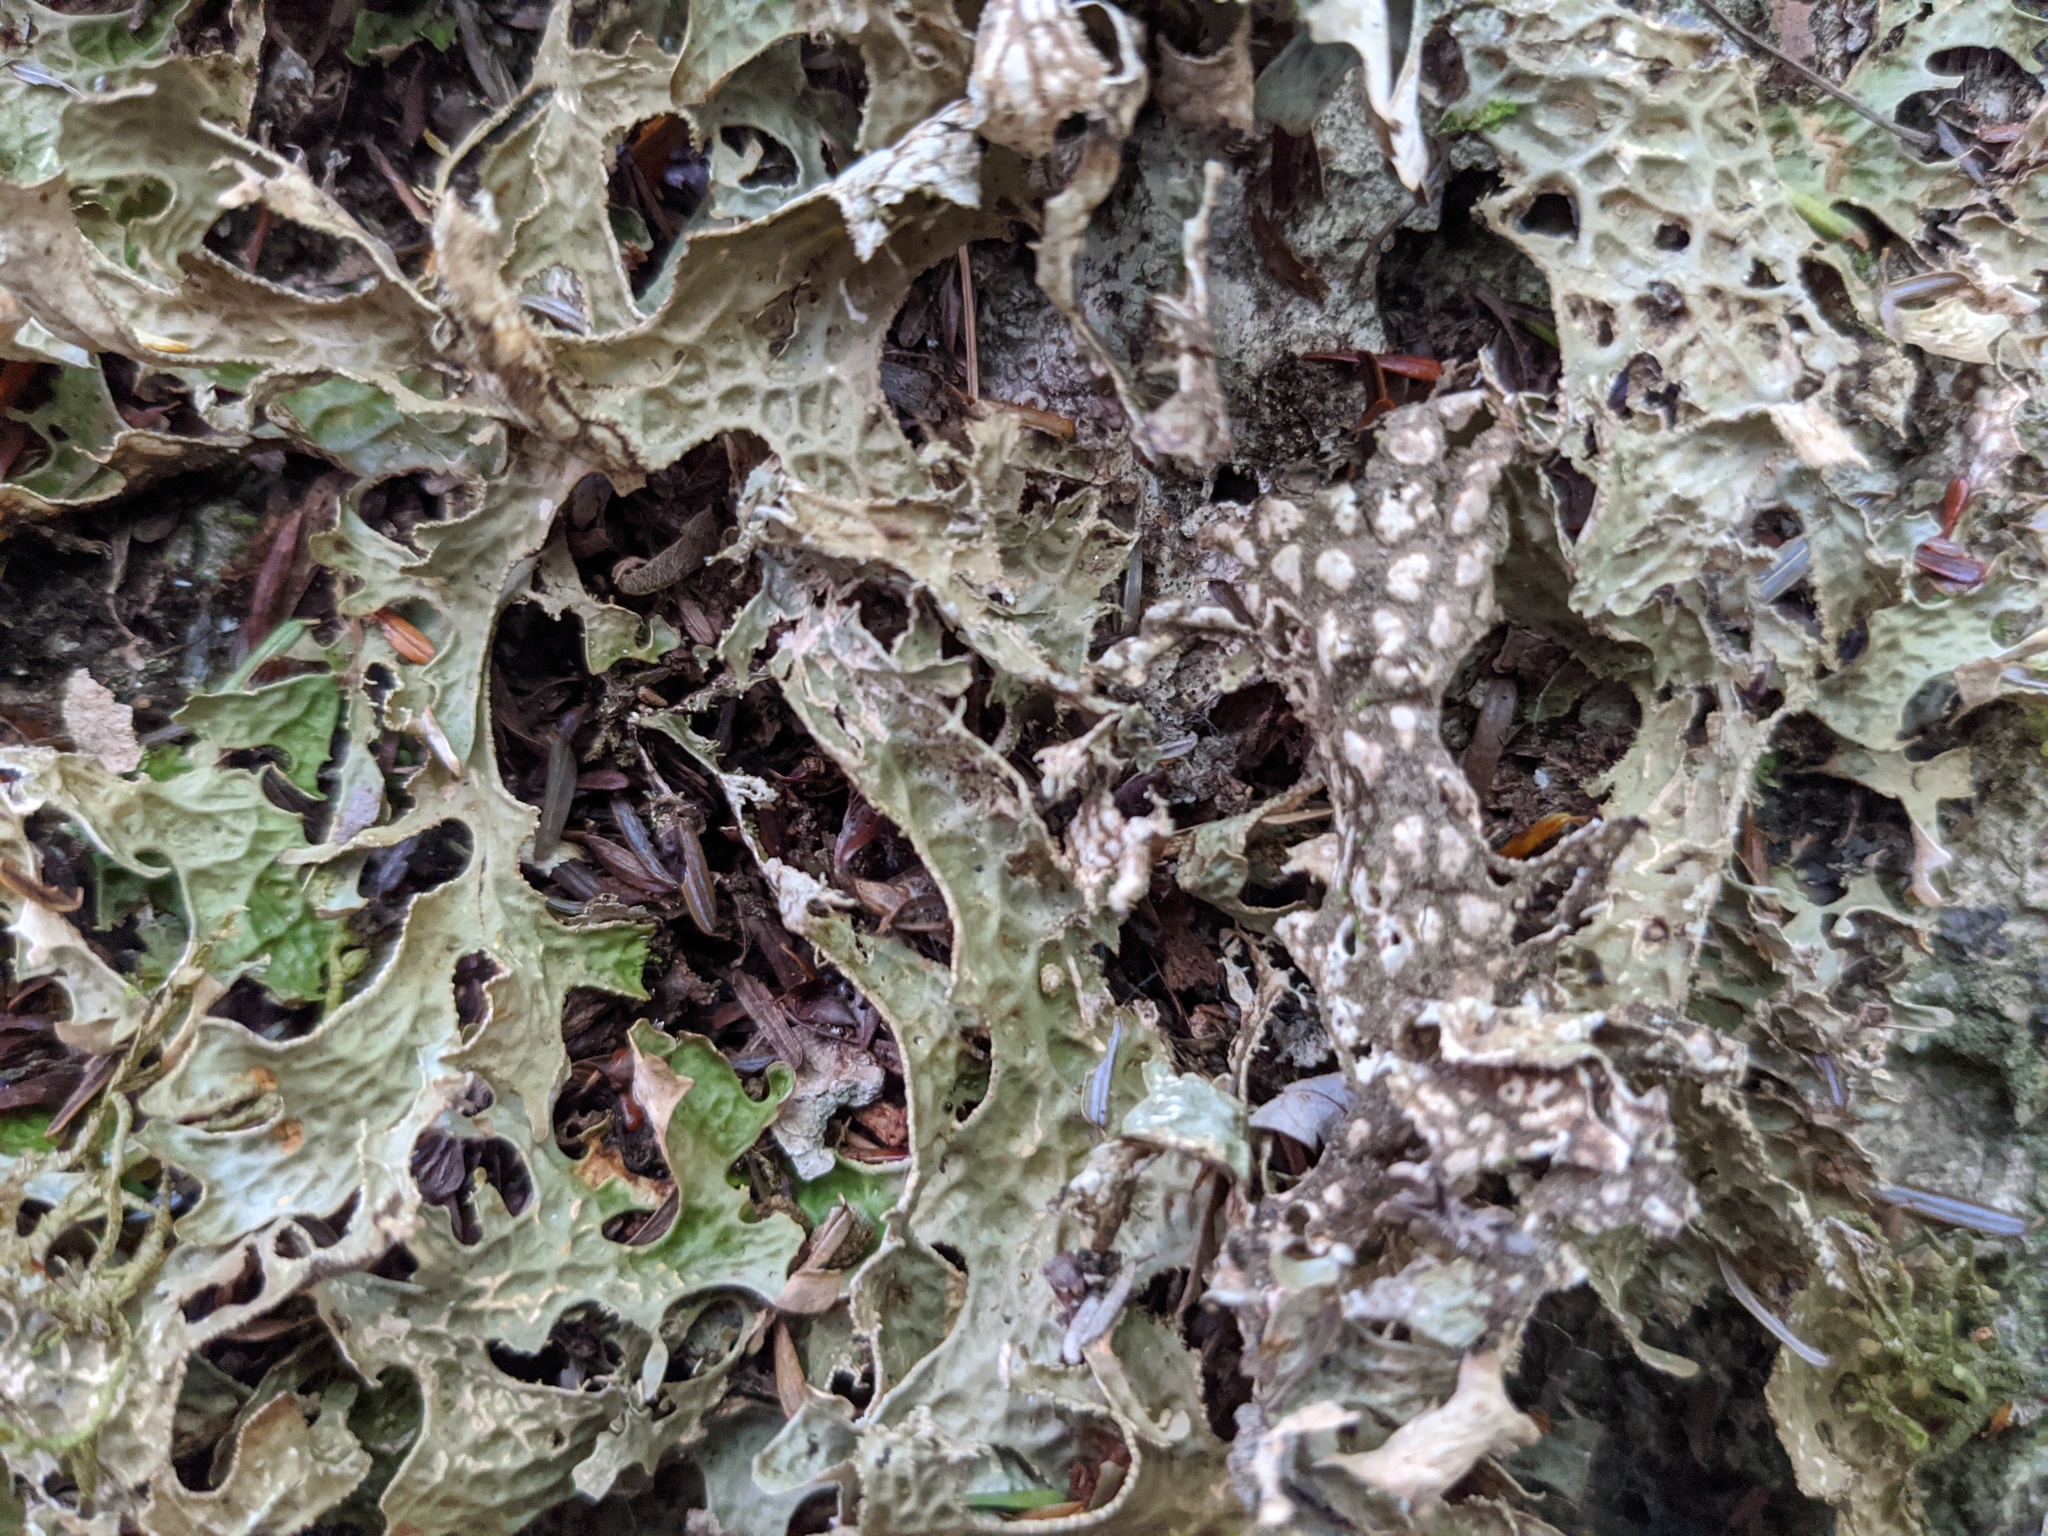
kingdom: Fungi
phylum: Ascomycota
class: Lecanoromycetes
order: Peltigerales
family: Lobariaceae
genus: Lobaria
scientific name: Lobaria pulmonaria
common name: Lungwort
